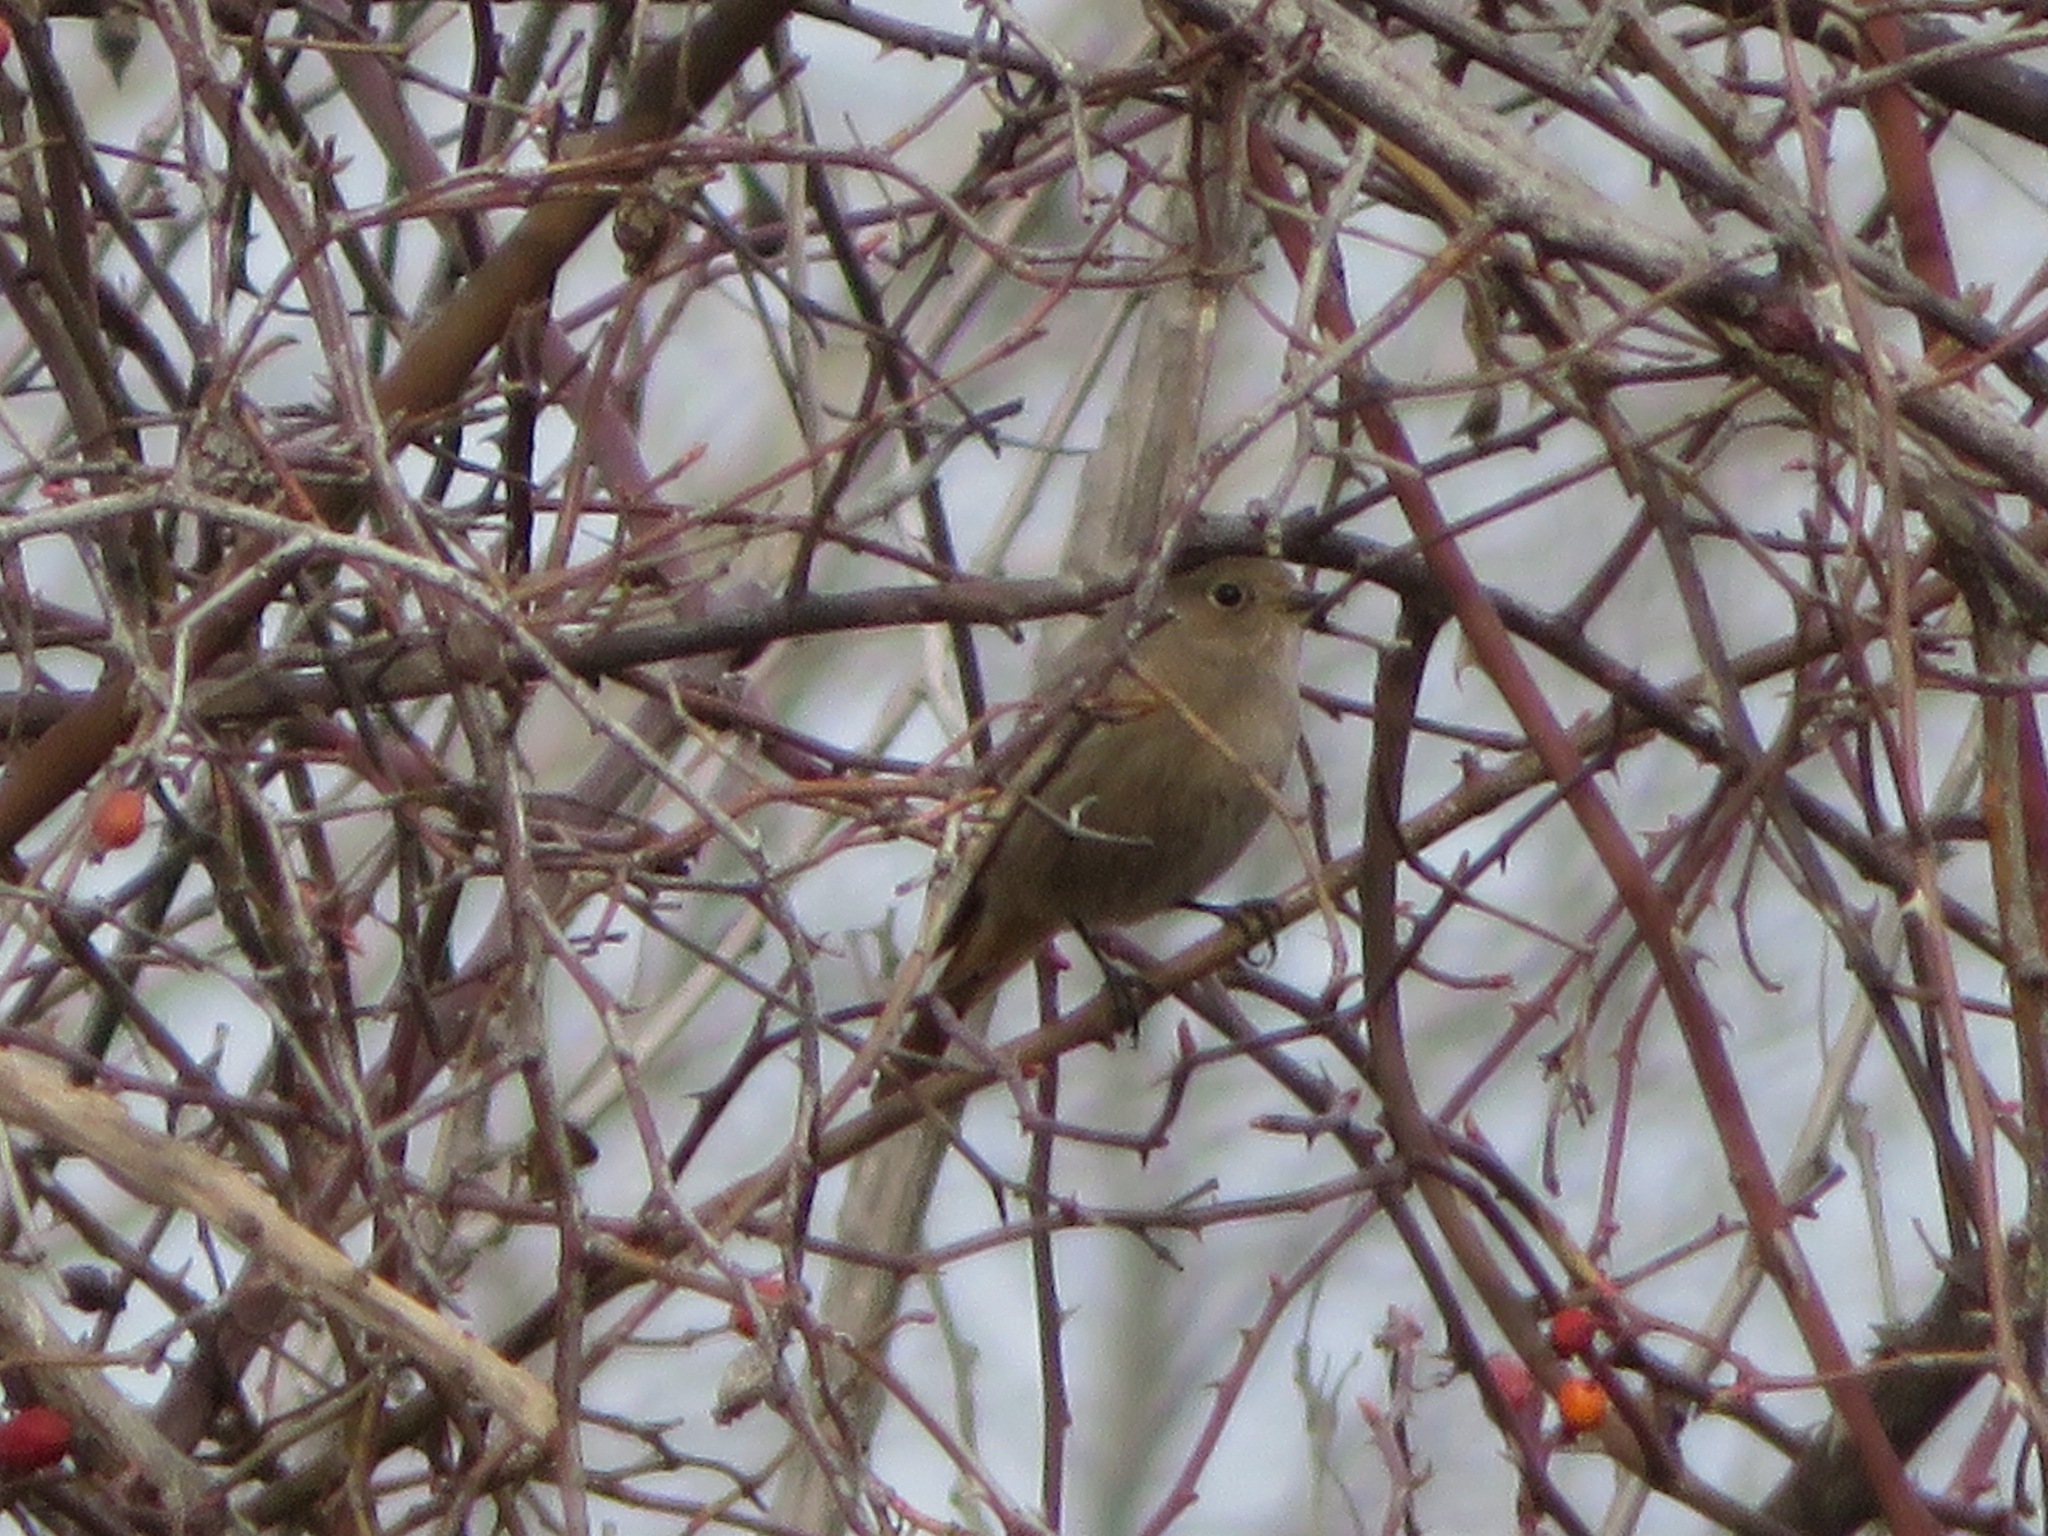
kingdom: Animalia
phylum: Chordata
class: Aves
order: Passeriformes
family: Muscicapidae
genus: Phoenicurus
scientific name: Phoenicurus ochruros
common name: Black redstart
